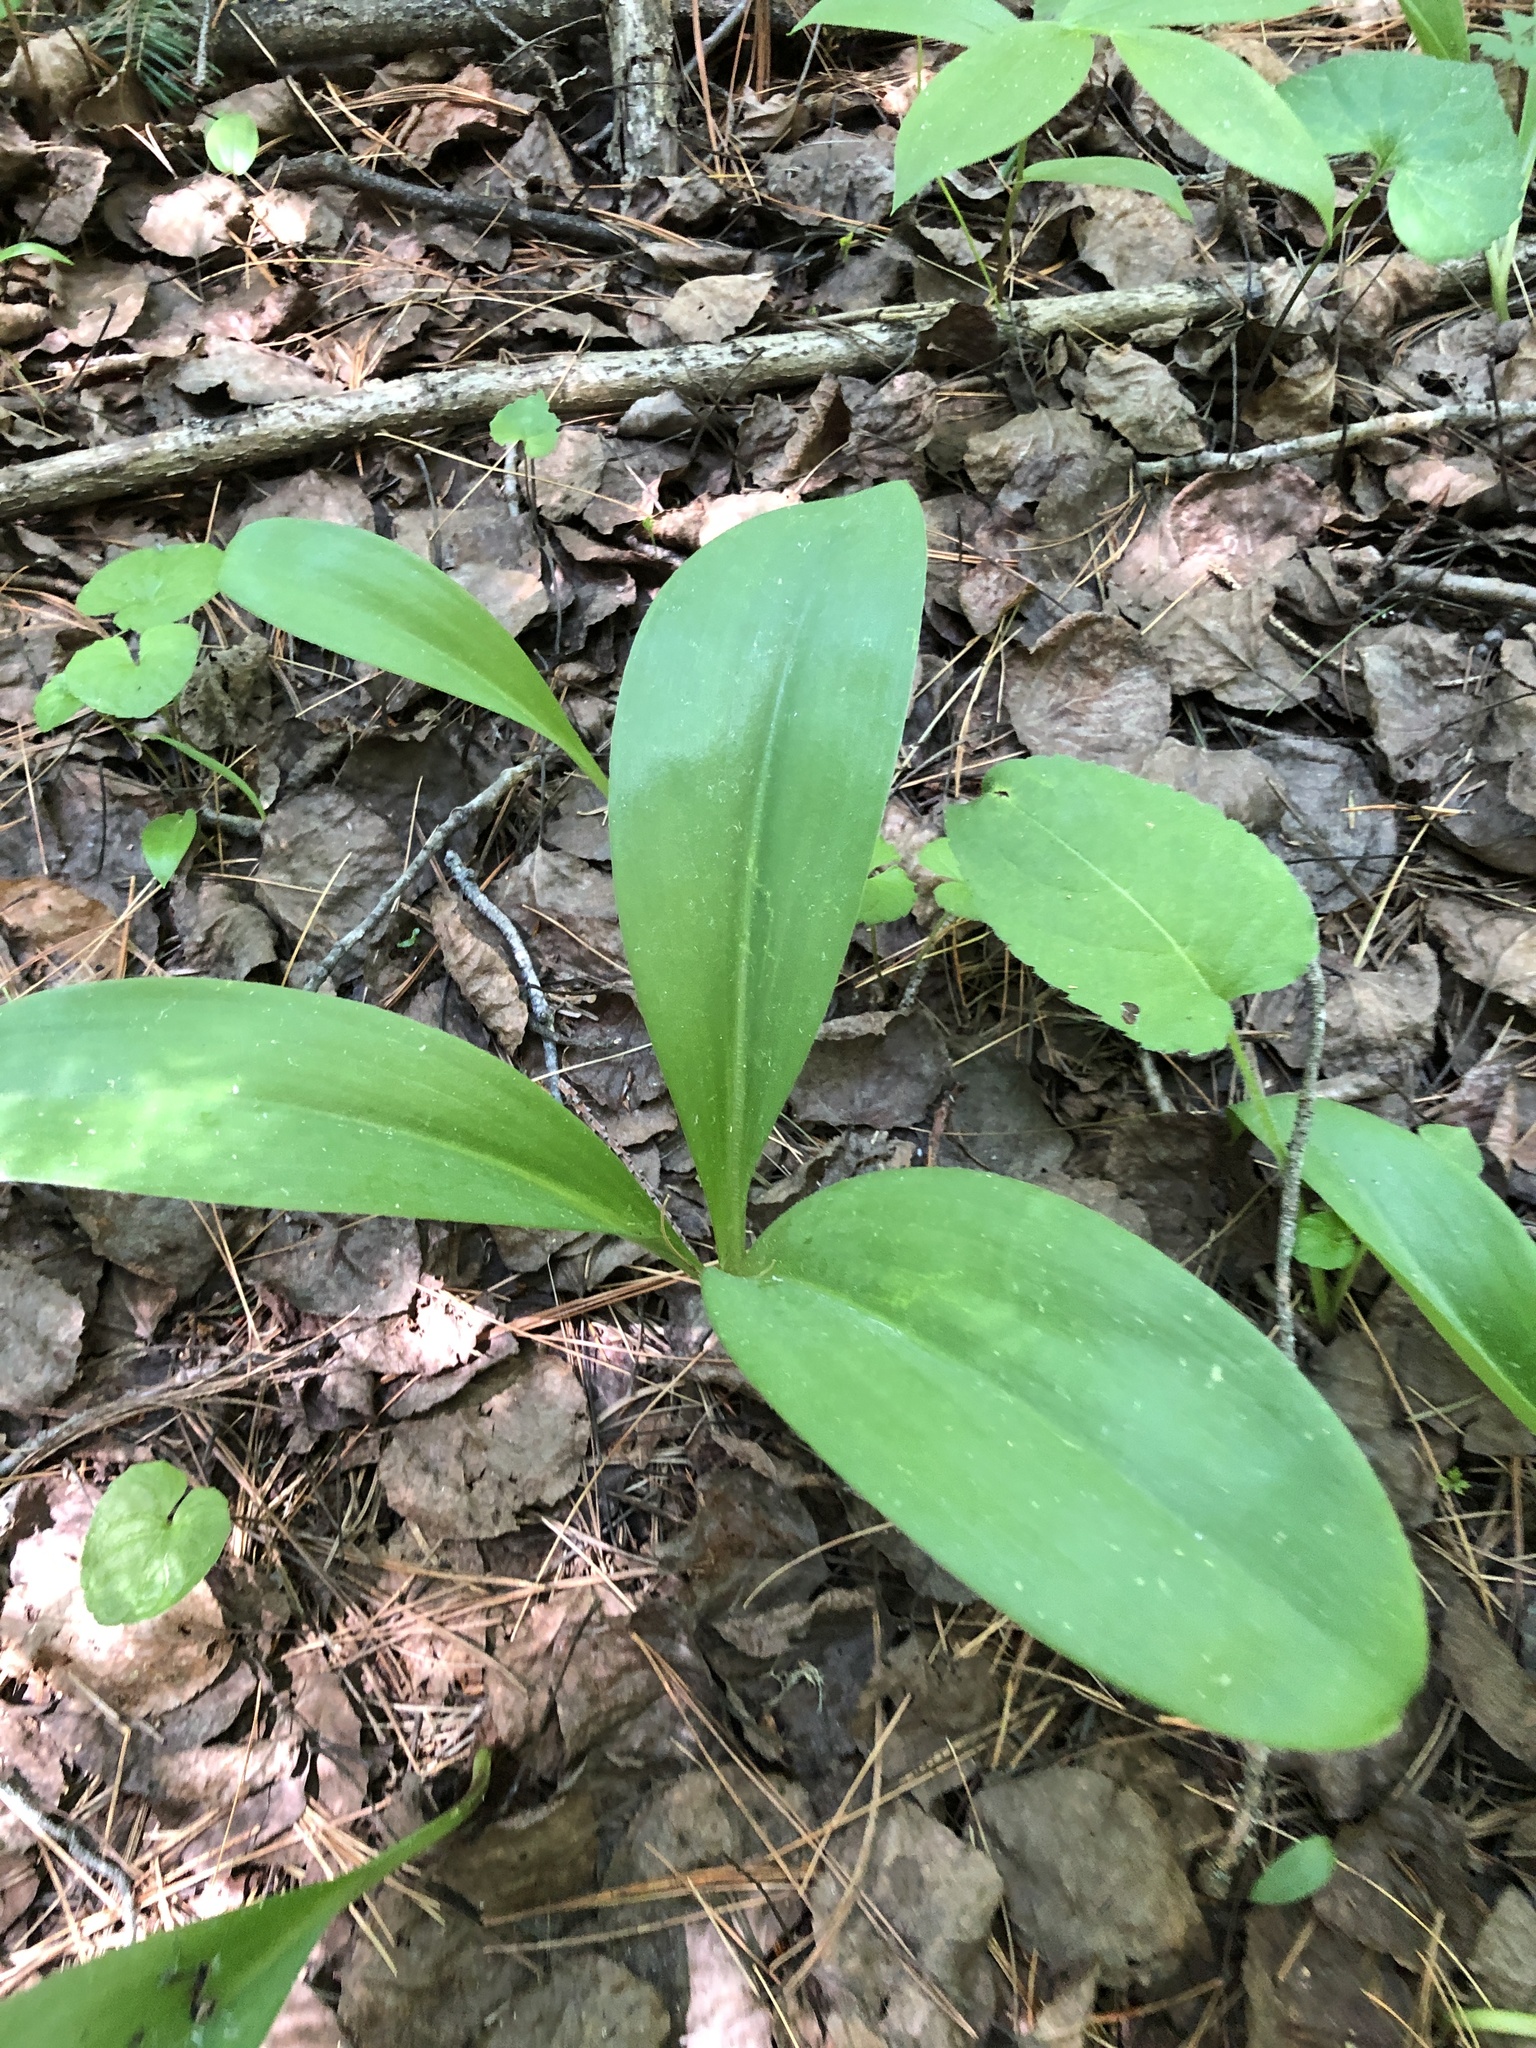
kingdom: Plantae
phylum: Tracheophyta
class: Liliopsida
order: Liliales
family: Liliaceae
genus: Clintonia
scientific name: Clintonia borealis
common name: Yellow clintonia
